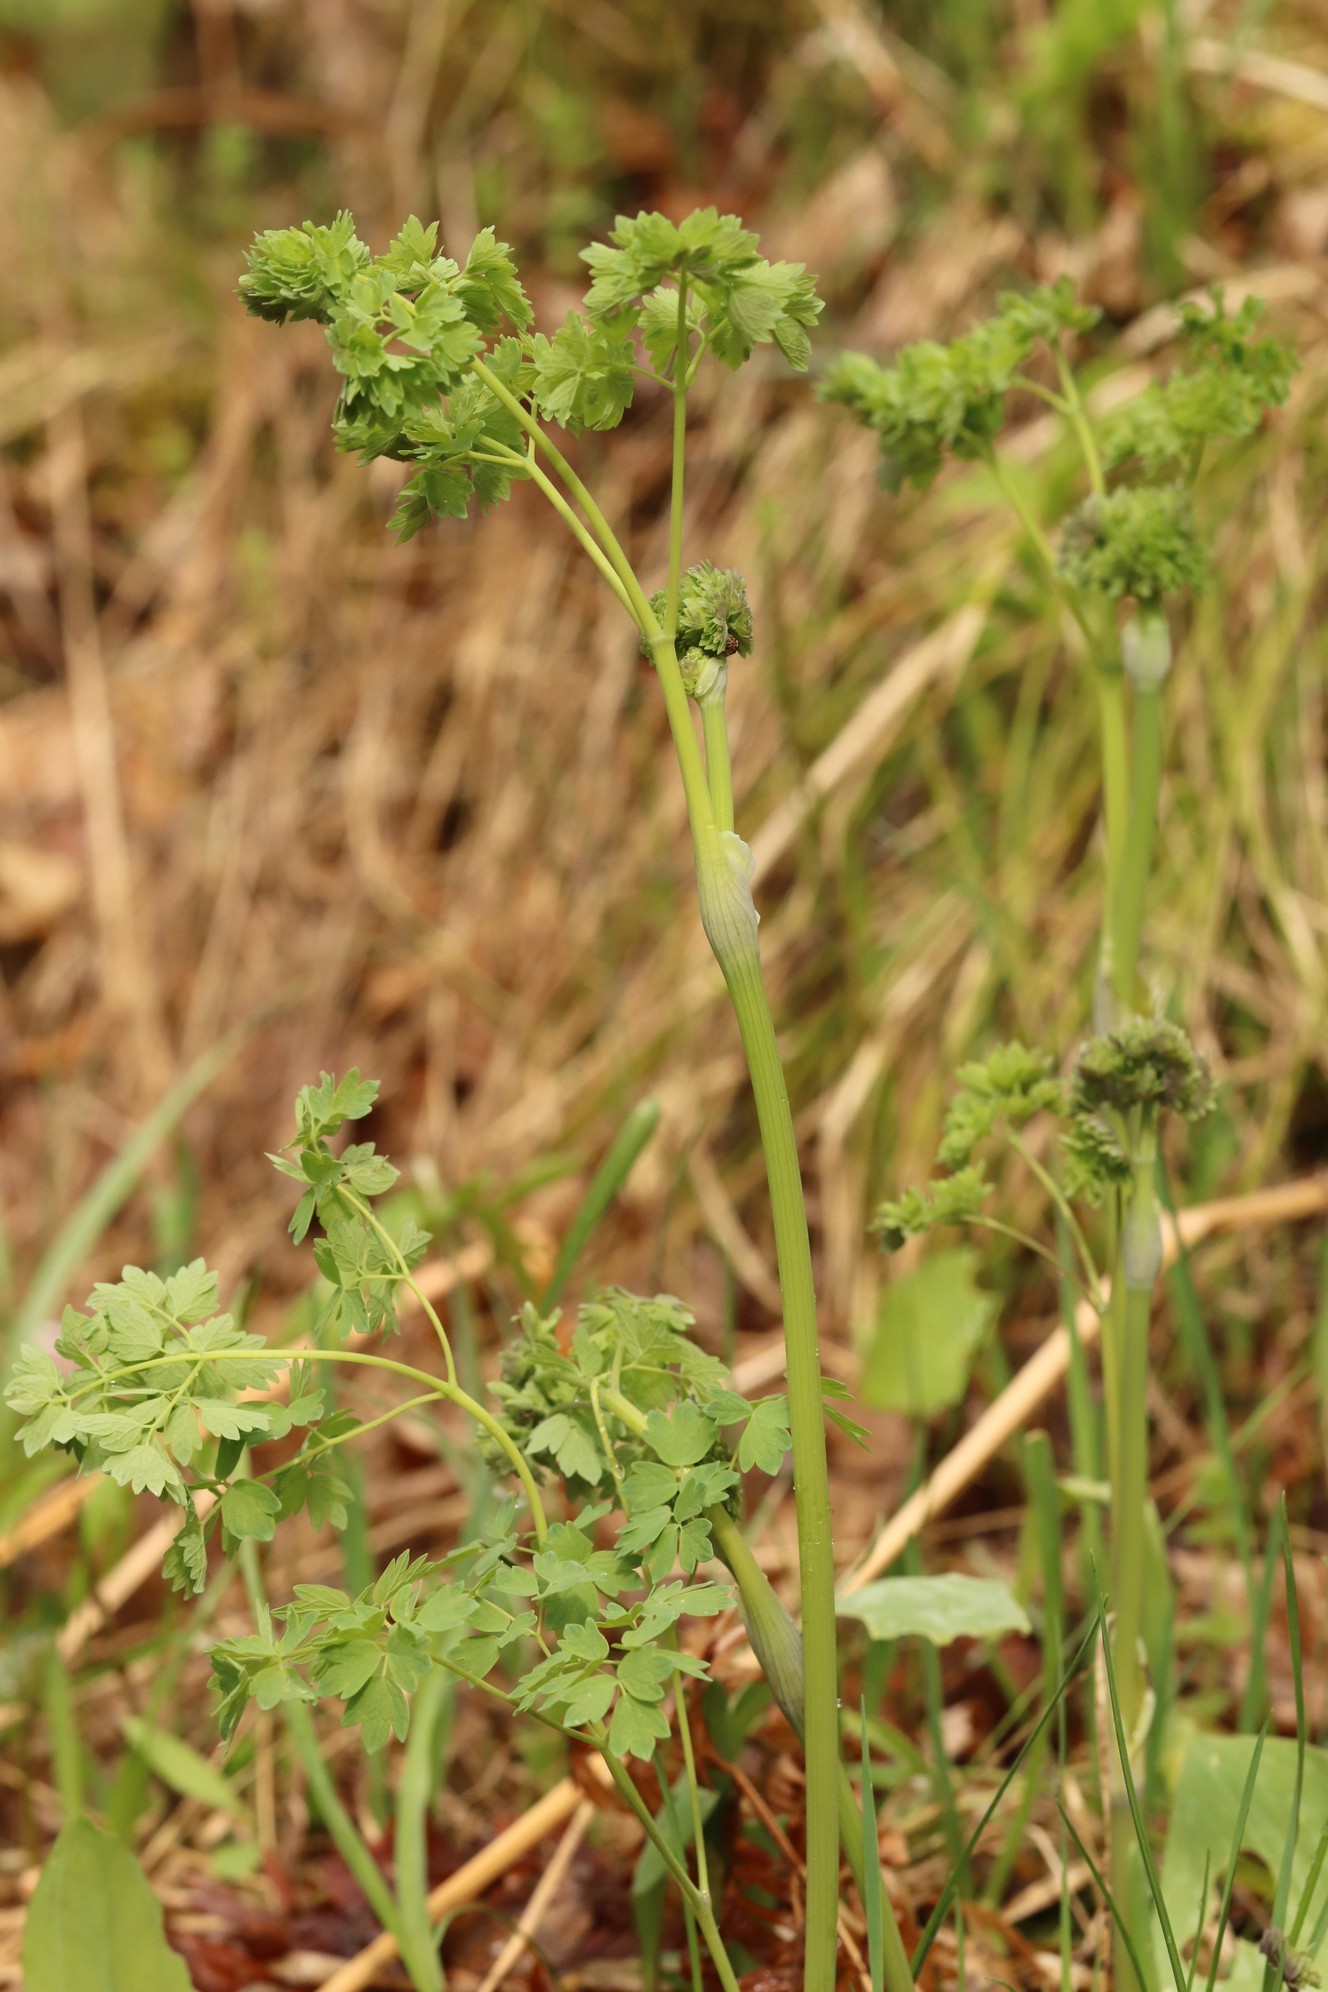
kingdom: Plantae
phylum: Tracheophyta
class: Magnoliopsida
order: Ranunculales
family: Ranunculaceae
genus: Thalictrum
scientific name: Thalictrum minus
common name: Lesser meadow-rue
